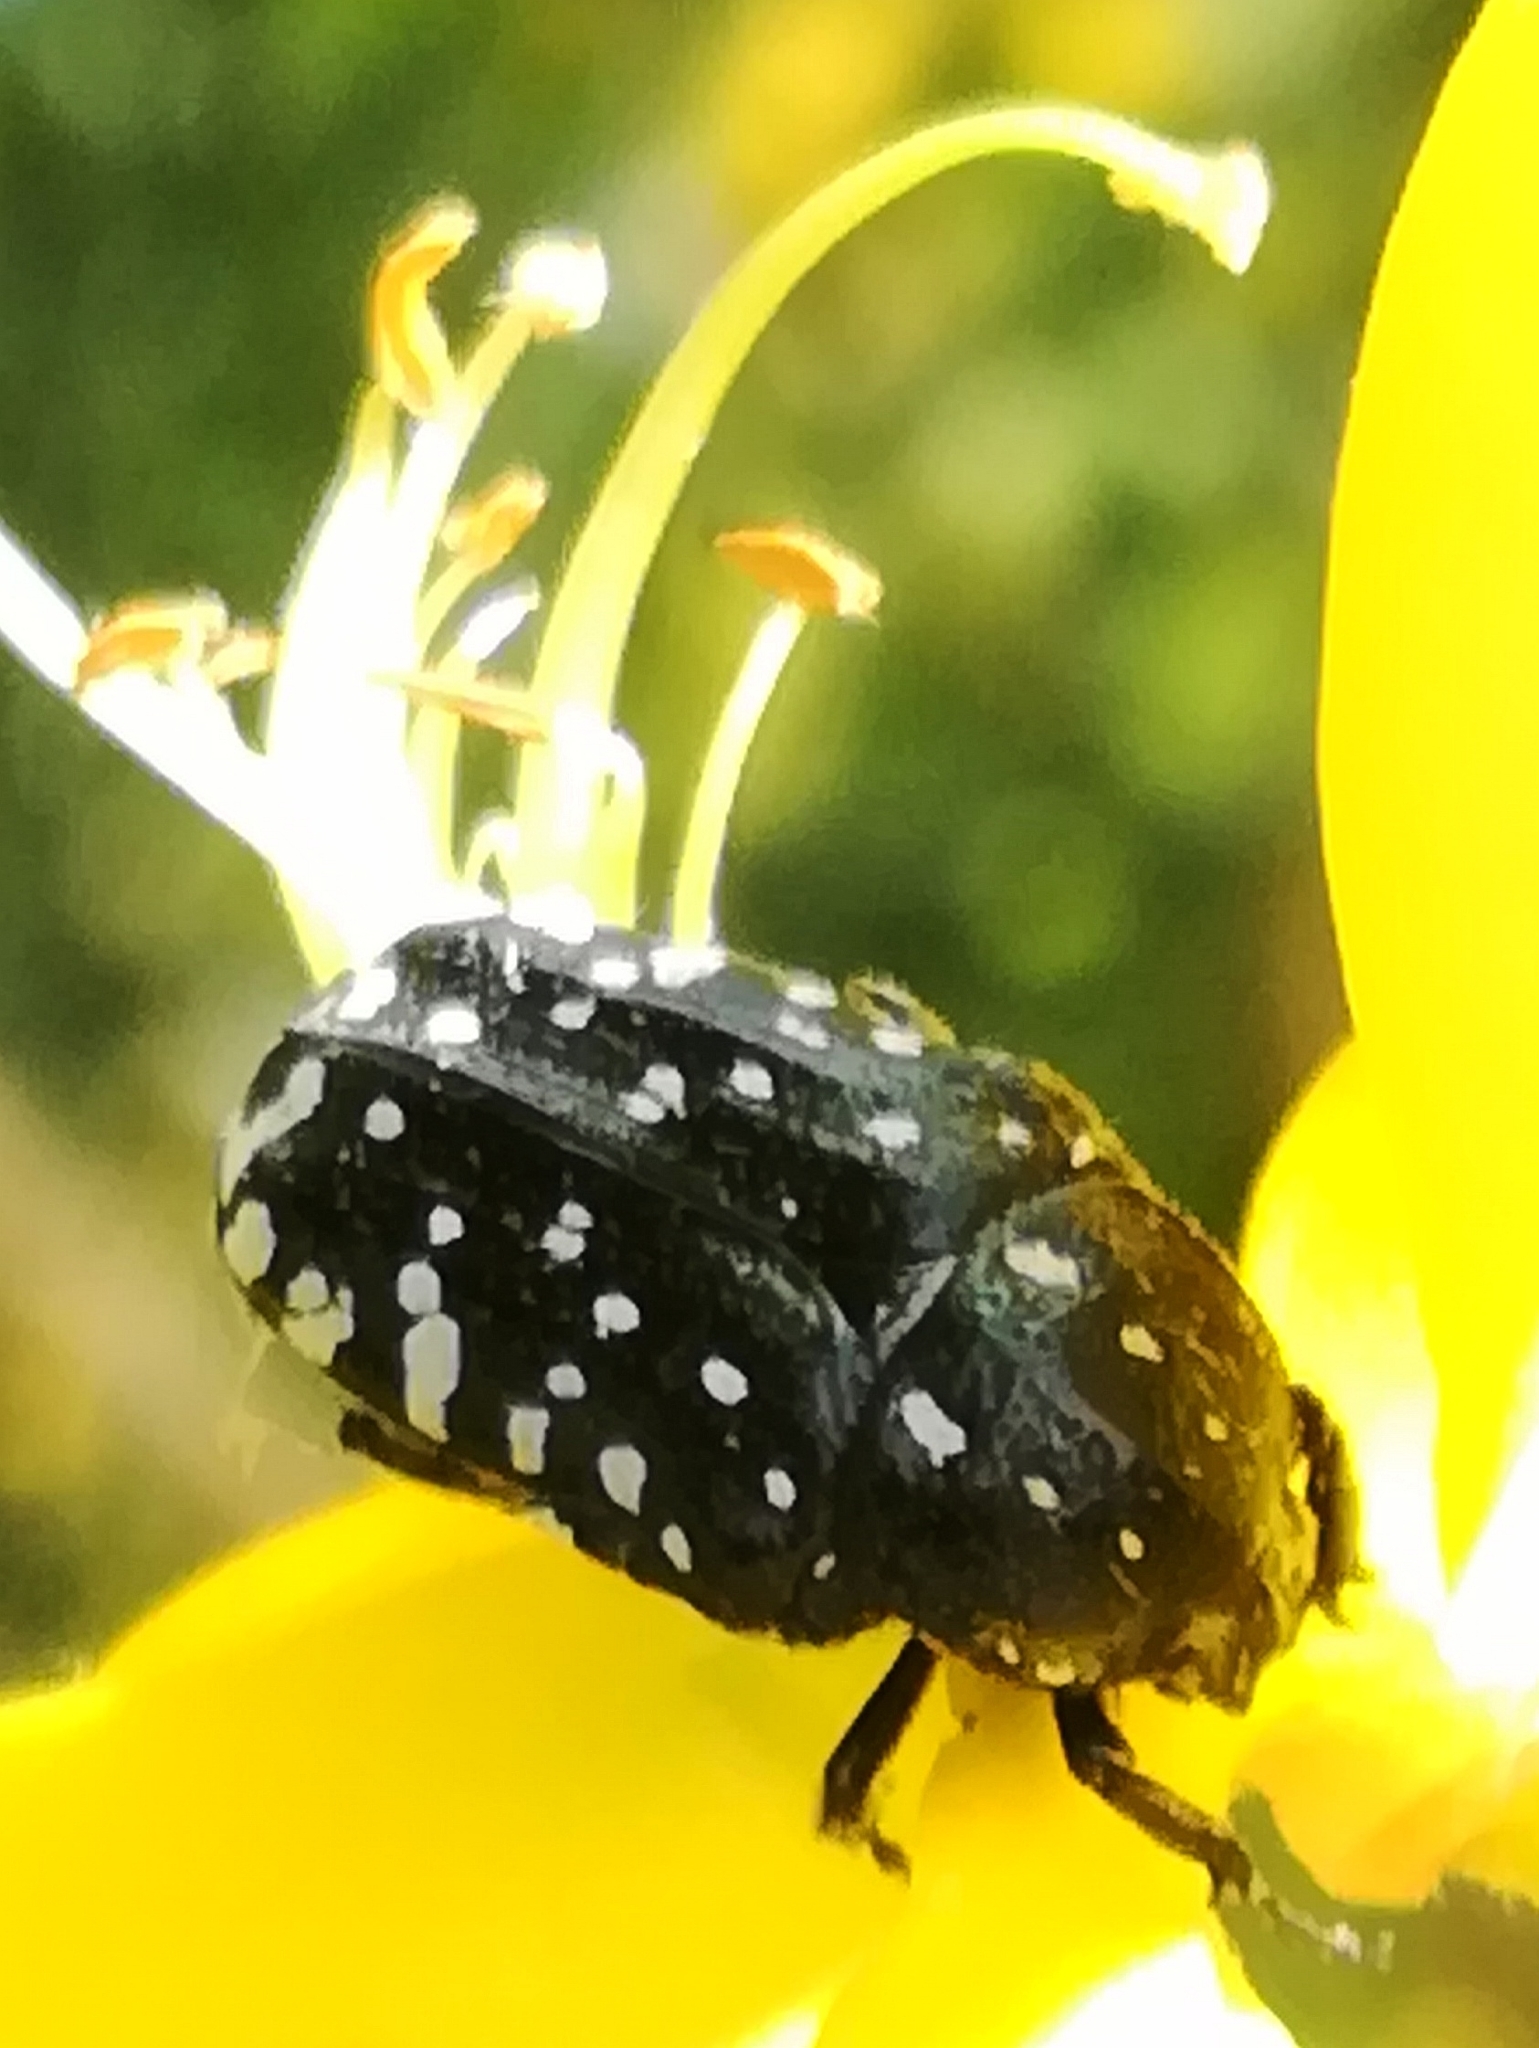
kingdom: Animalia
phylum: Arthropoda
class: Insecta
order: Coleoptera
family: Scarabaeidae
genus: Oxythyrea
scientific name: Oxythyrea funesta
